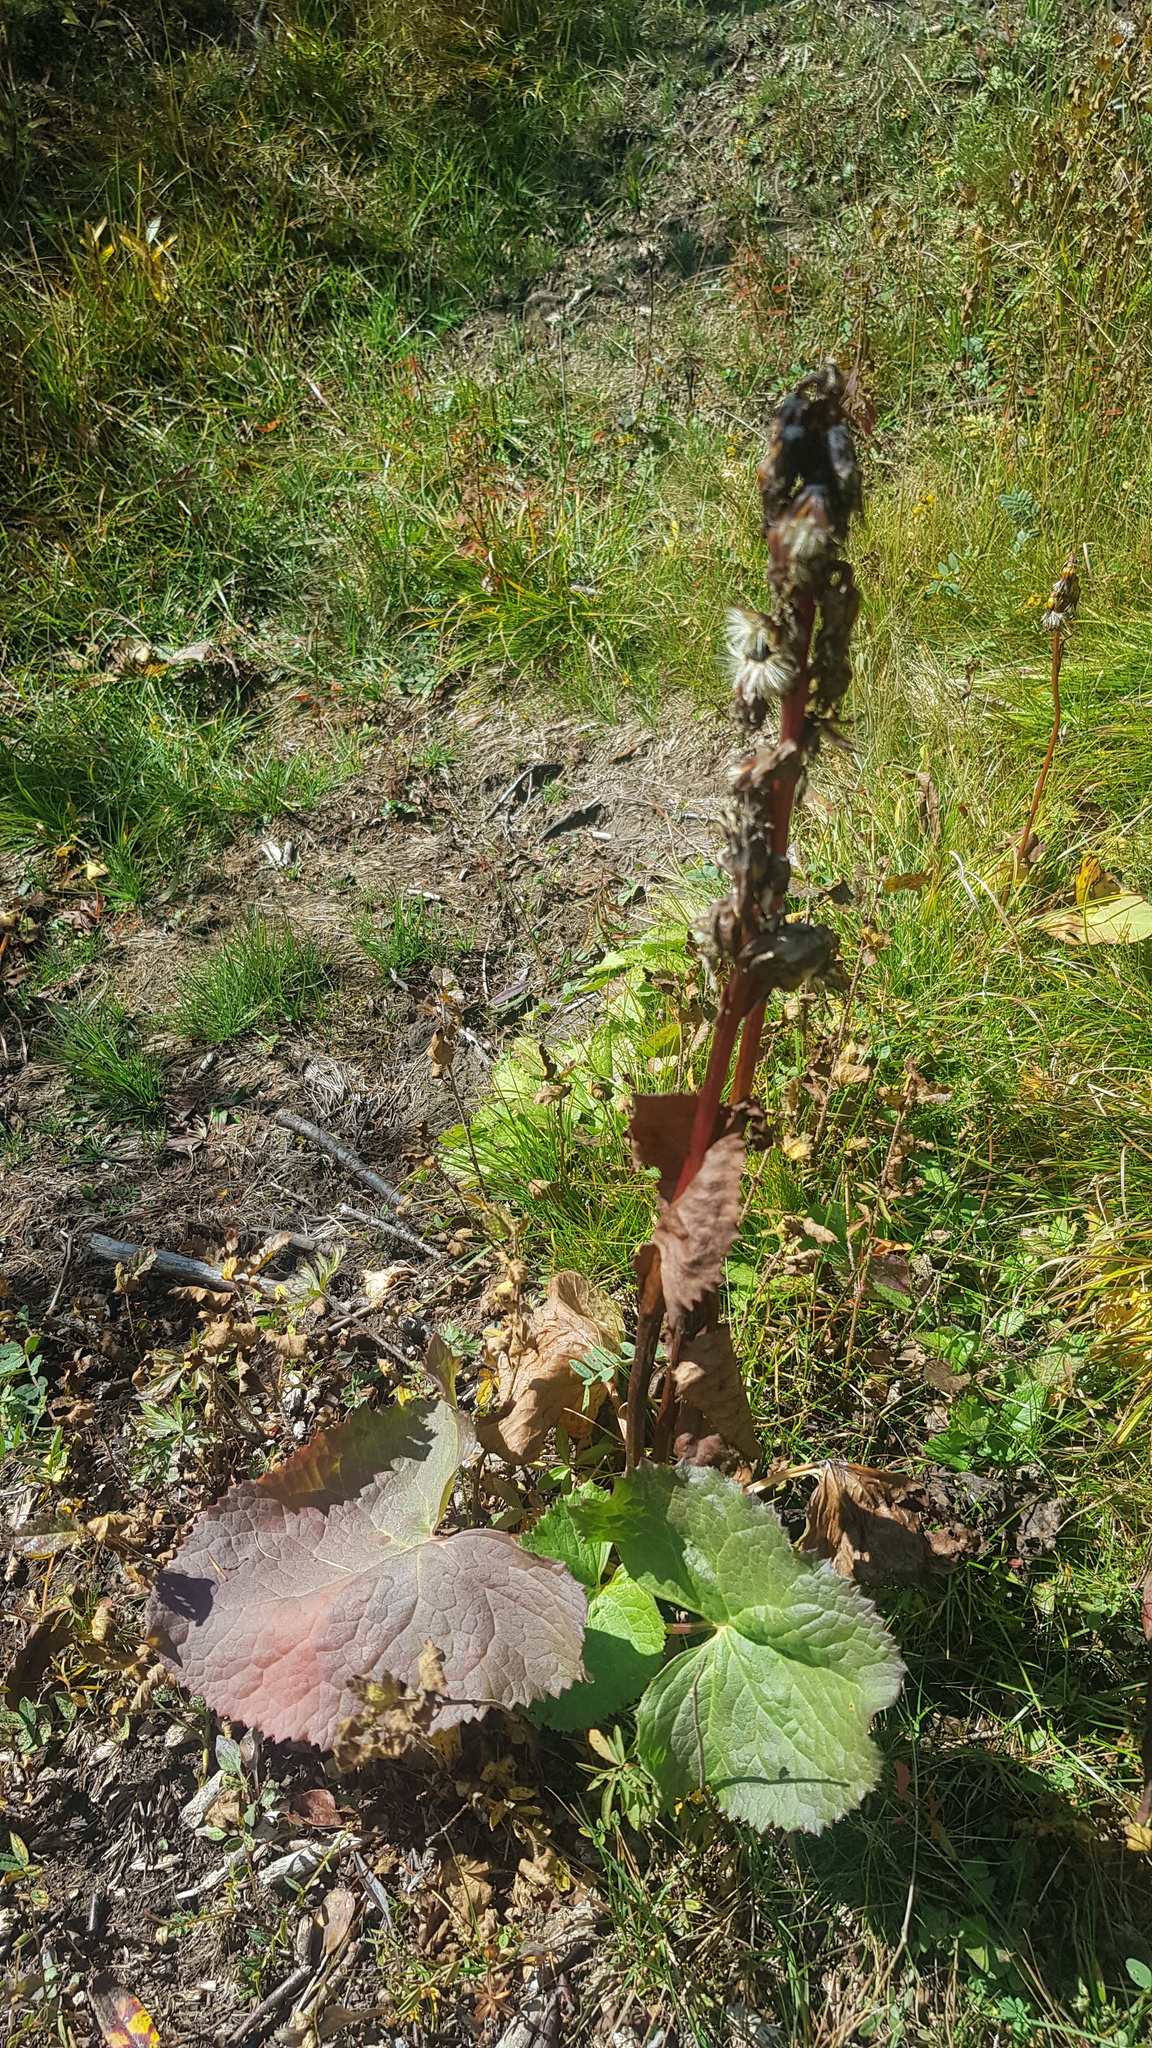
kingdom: Plantae
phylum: Tracheophyta
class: Magnoliopsida
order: Asterales
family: Asteraceae
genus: Ligularia
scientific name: Ligularia sibirica
